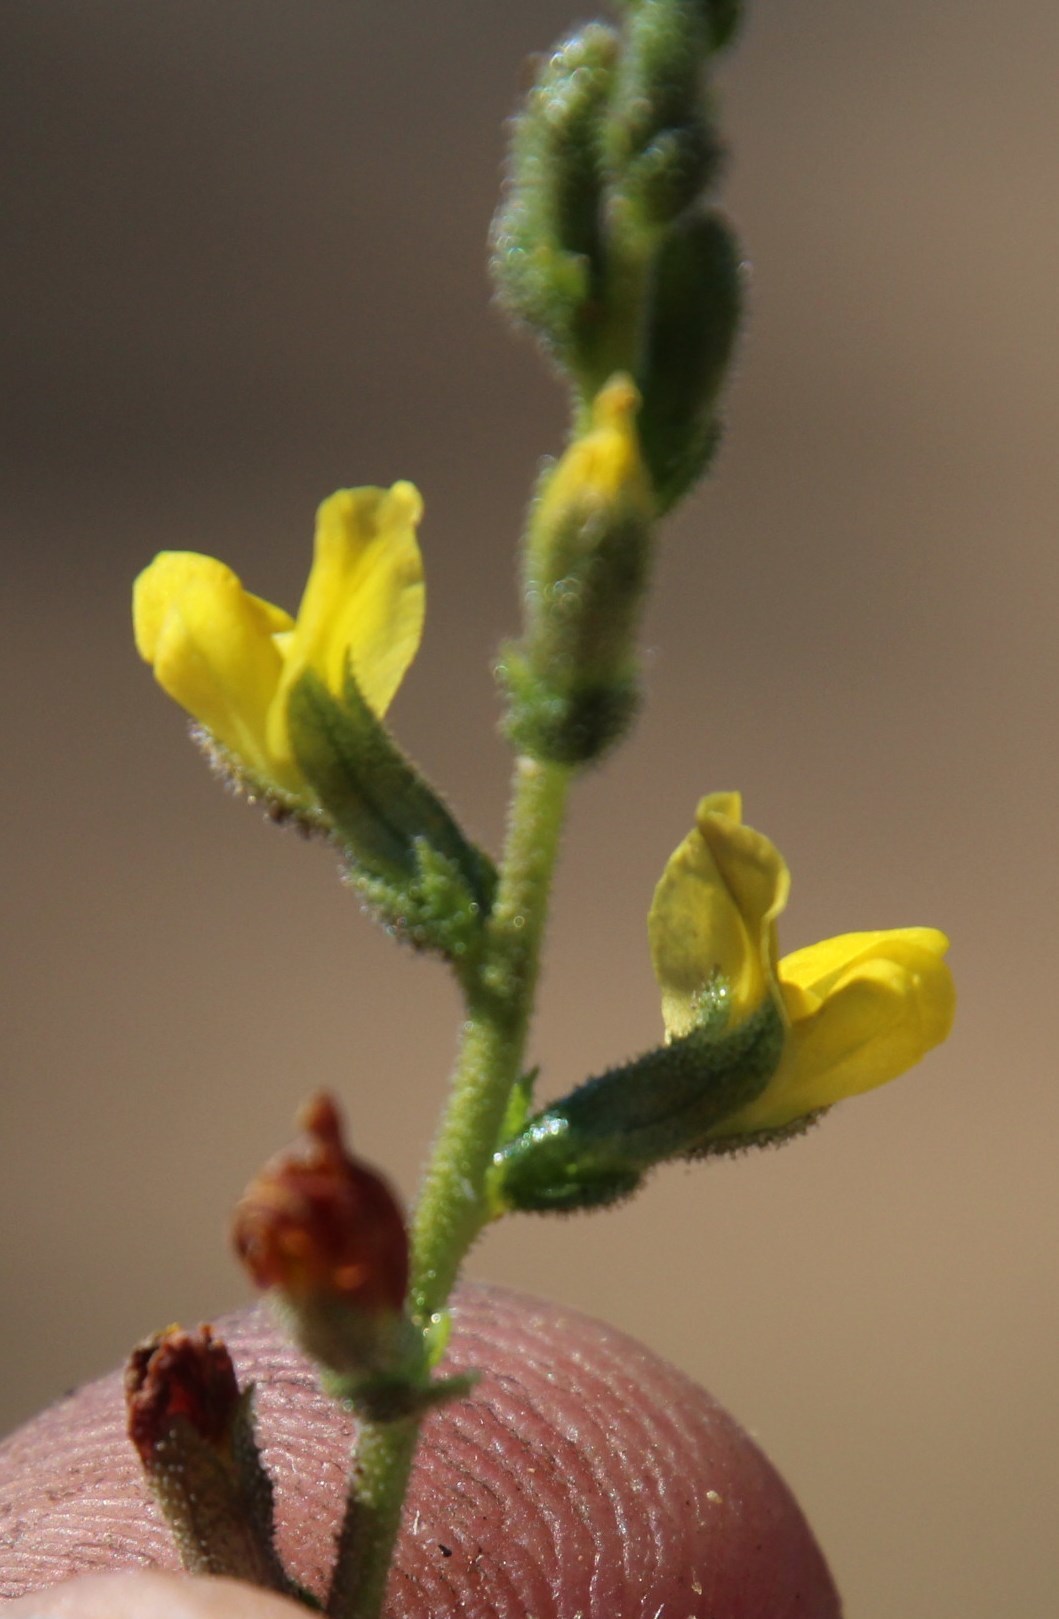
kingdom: Plantae
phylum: Tracheophyta
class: Magnoliopsida
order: Fabales
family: Fabaceae
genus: Melolobium
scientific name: Melolobium adenodes
